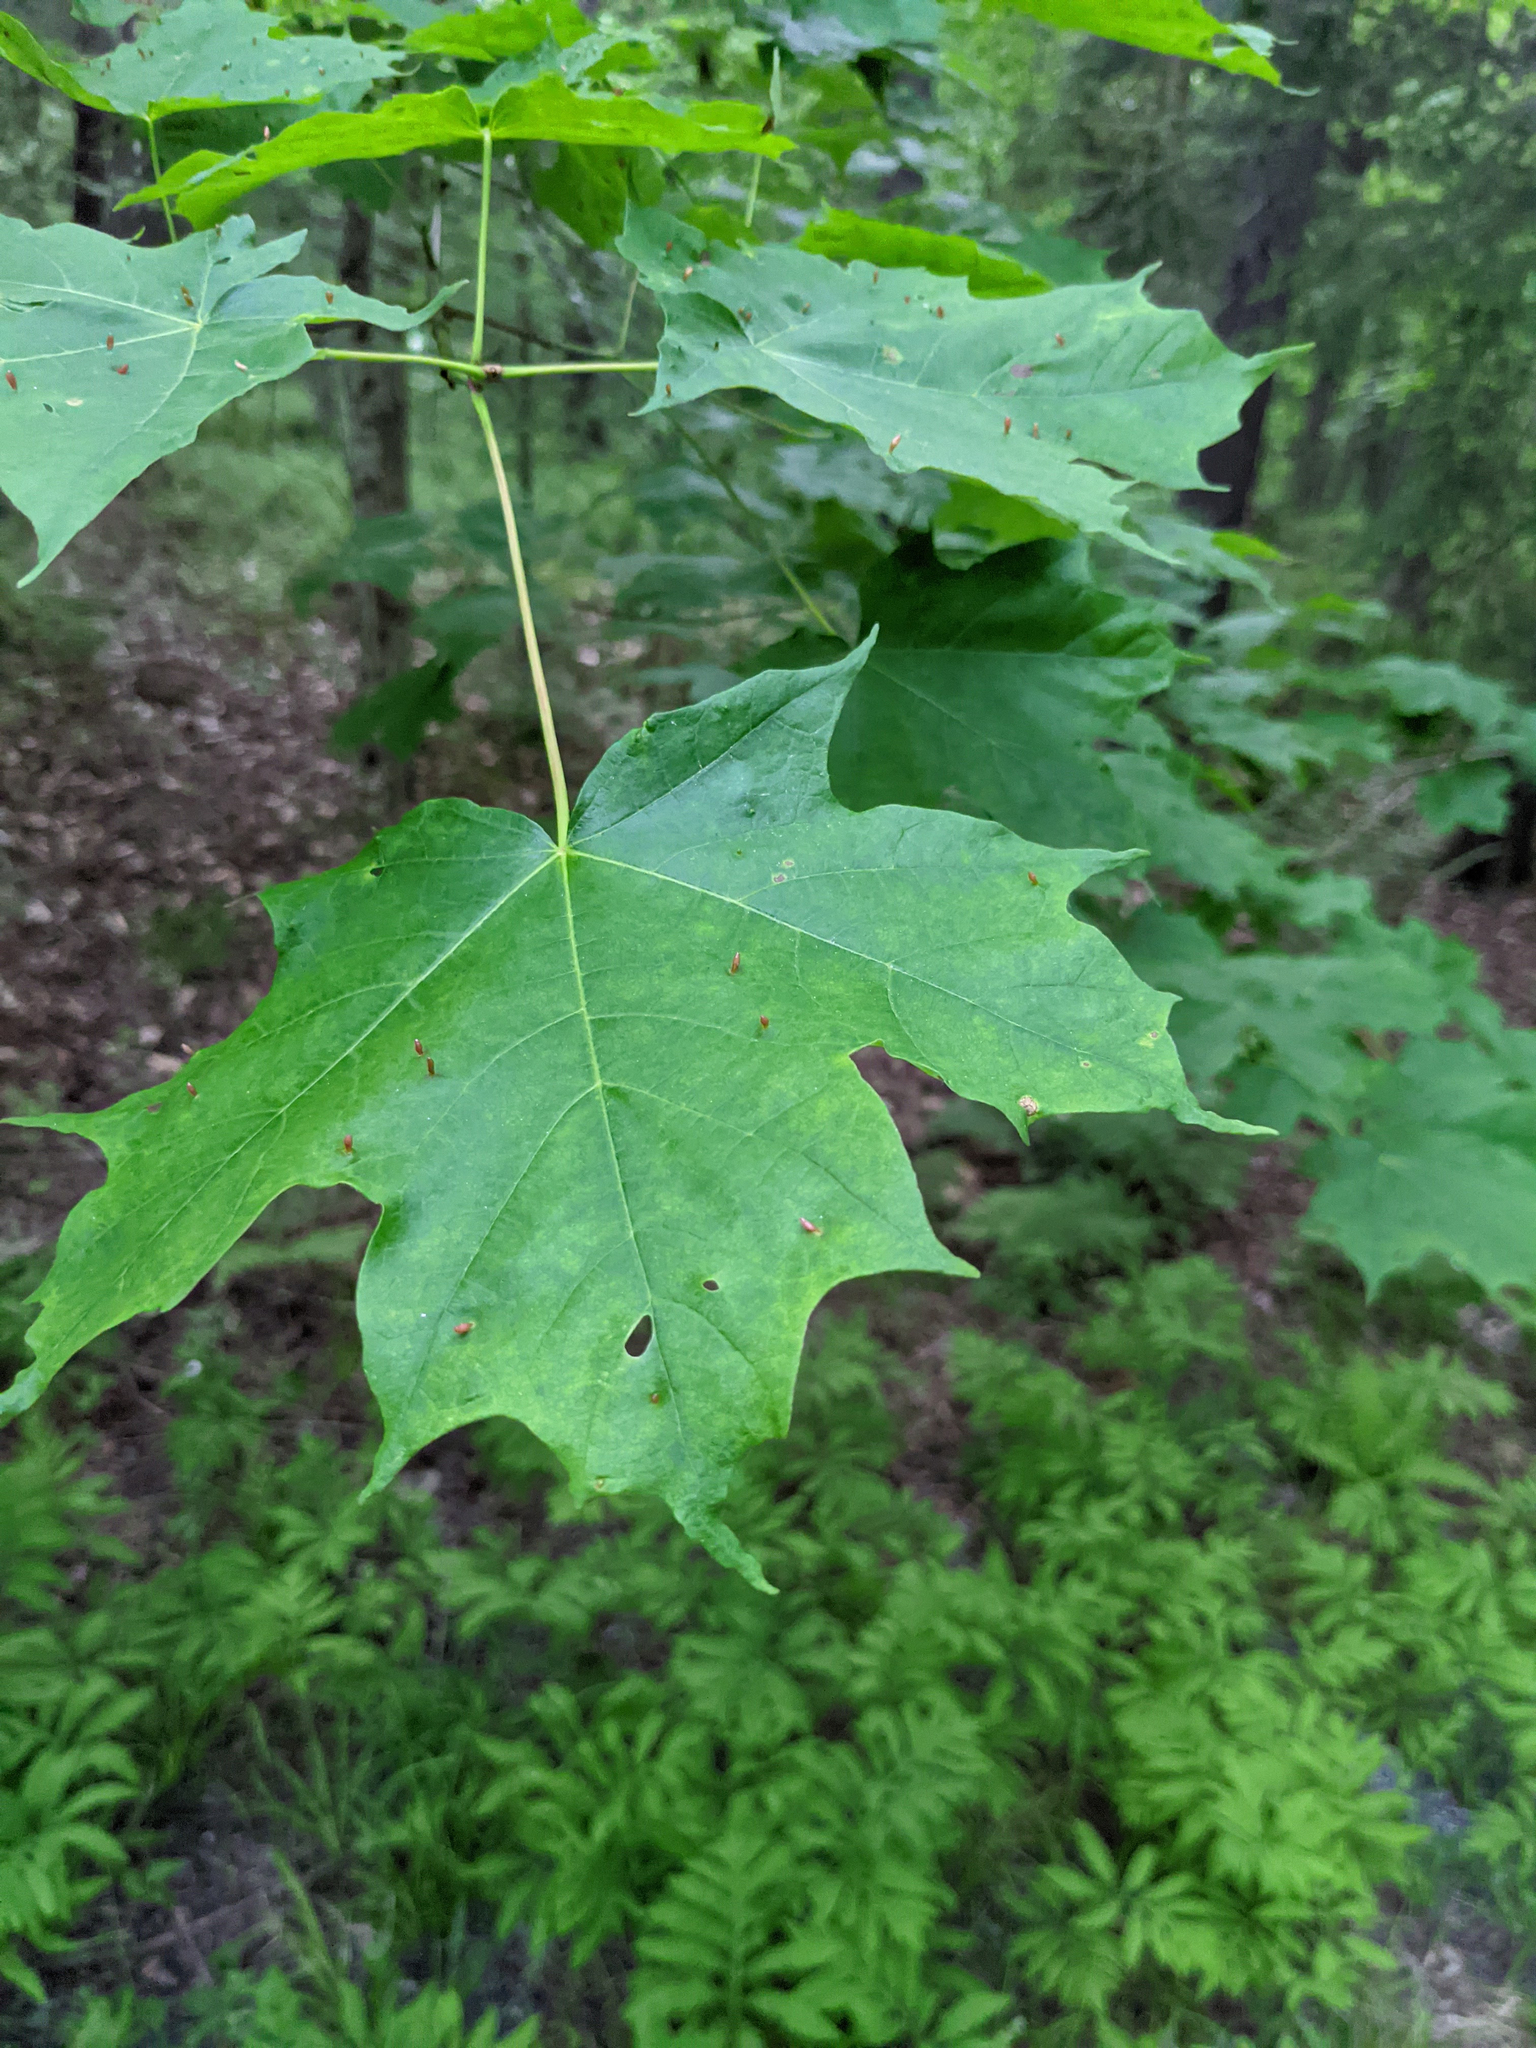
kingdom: Plantae
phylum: Tracheophyta
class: Magnoliopsida
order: Sapindales
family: Sapindaceae
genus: Acer
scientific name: Acer saccharum
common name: Sugar maple
